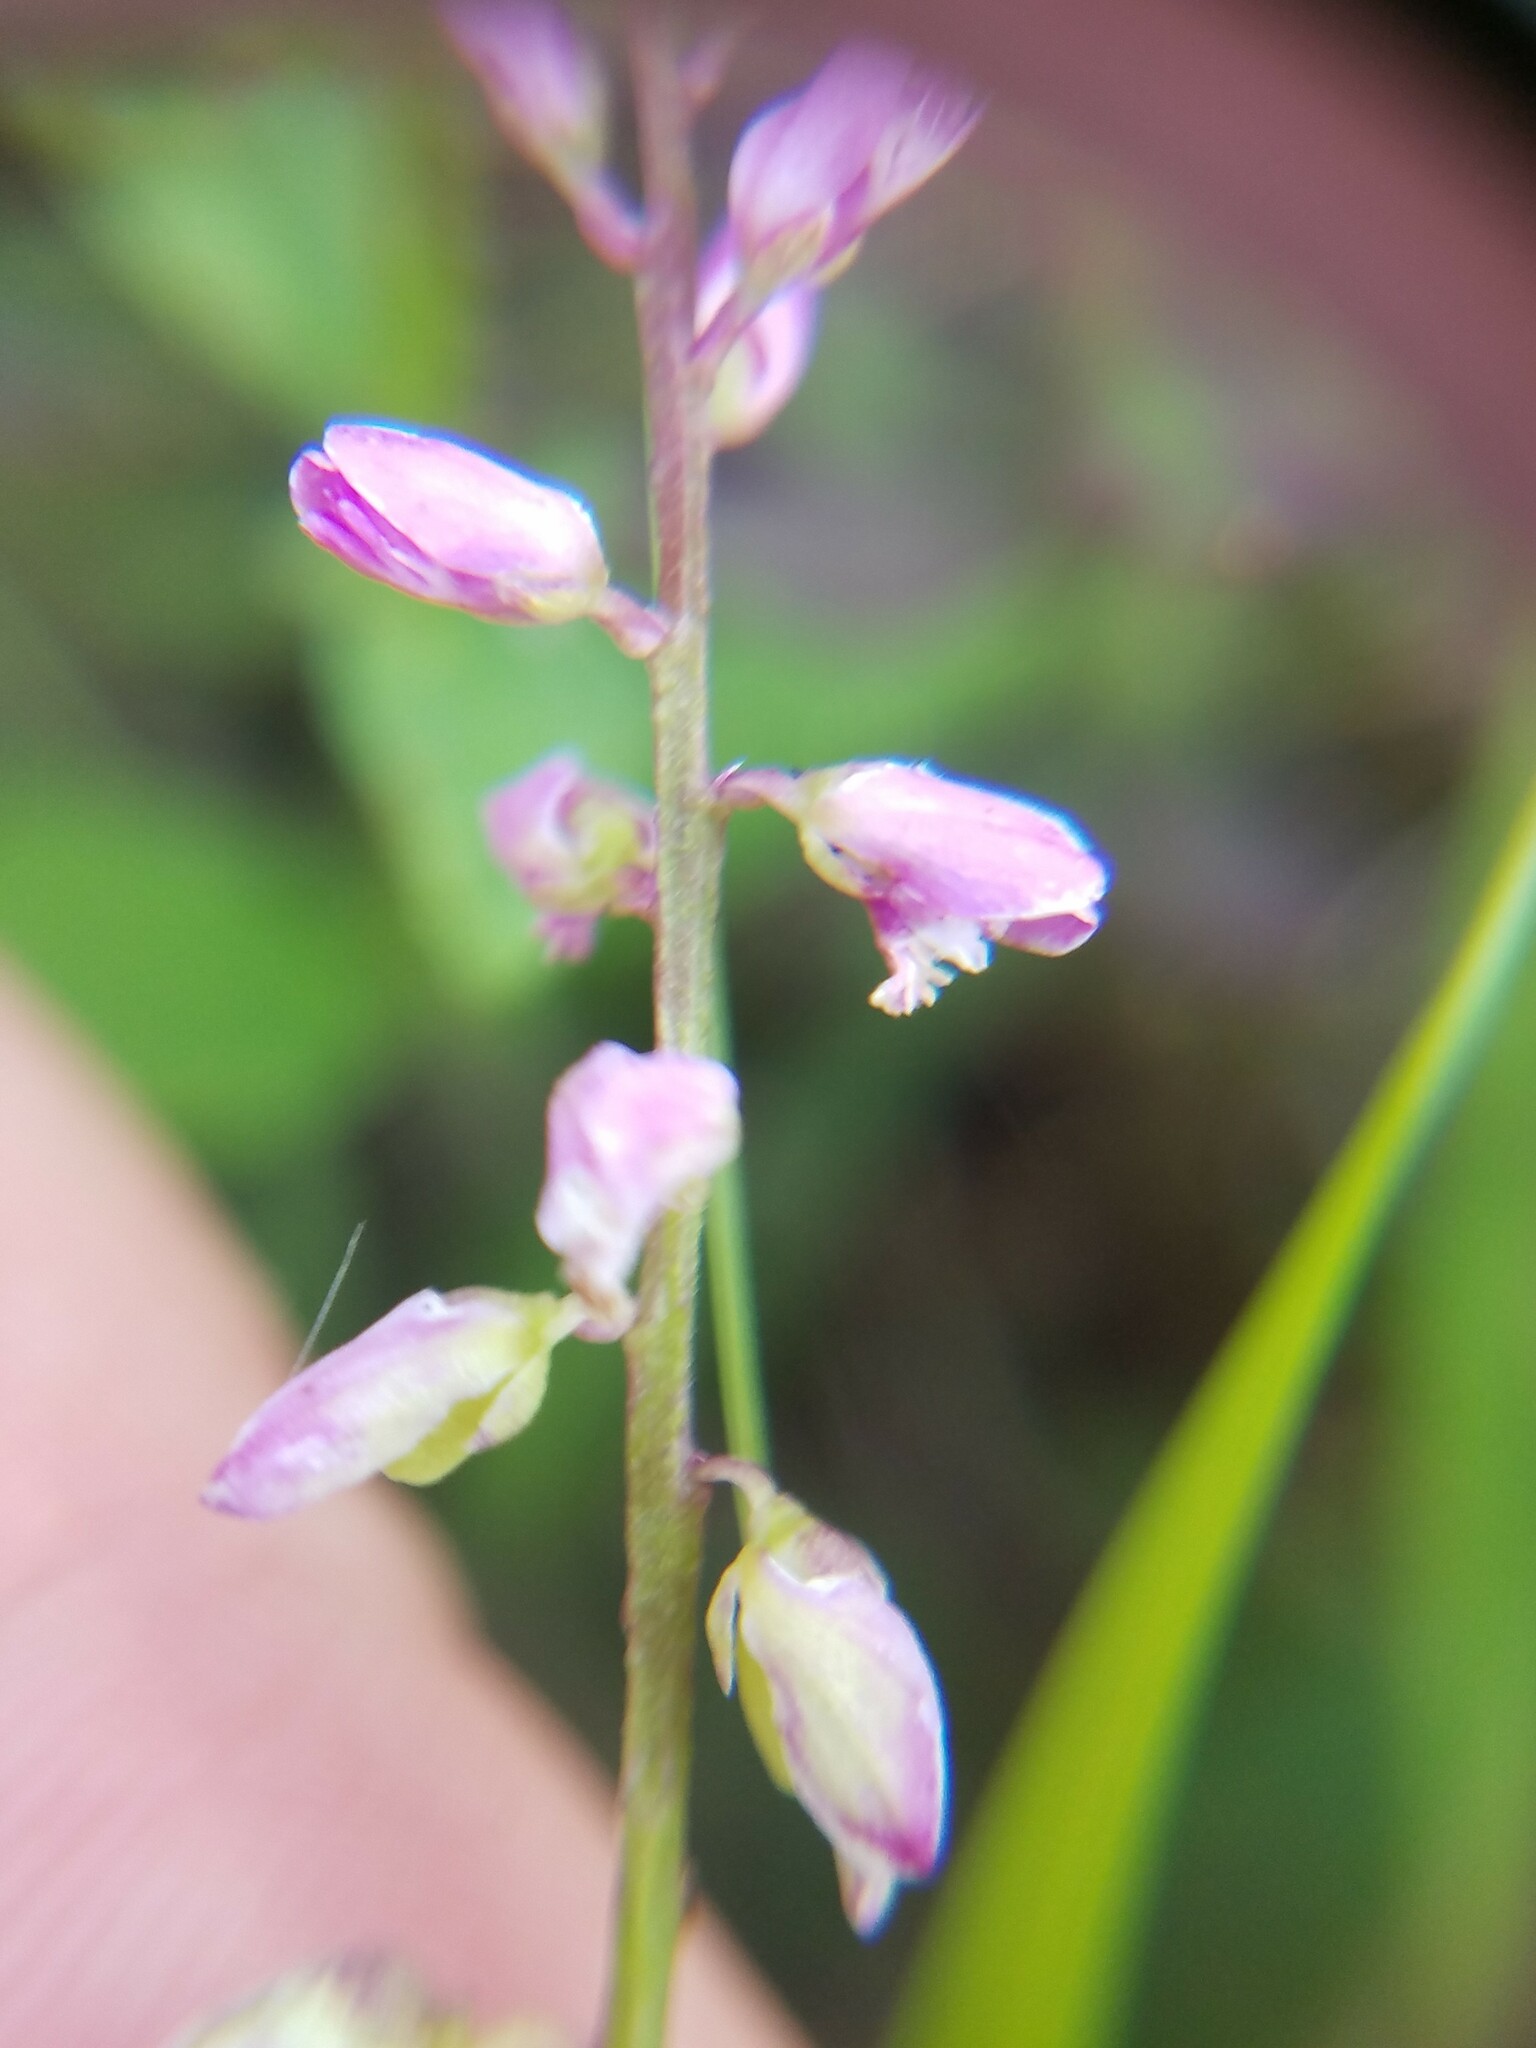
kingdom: Plantae
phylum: Tracheophyta
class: Magnoliopsida
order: Fabales
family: Polygalaceae
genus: Polygala
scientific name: Polygala polygama
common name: Bitter milkwort
